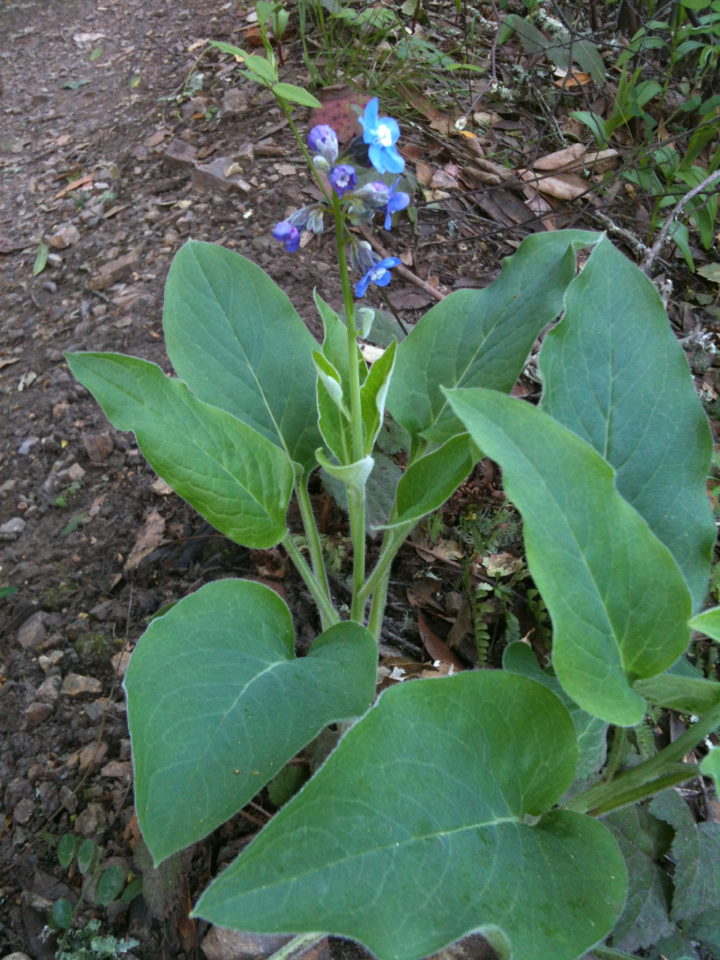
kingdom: Plantae
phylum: Tracheophyta
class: Magnoliopsida
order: Boraginales
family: Boraginaceae
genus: Adelinia
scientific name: Adelinia grande
